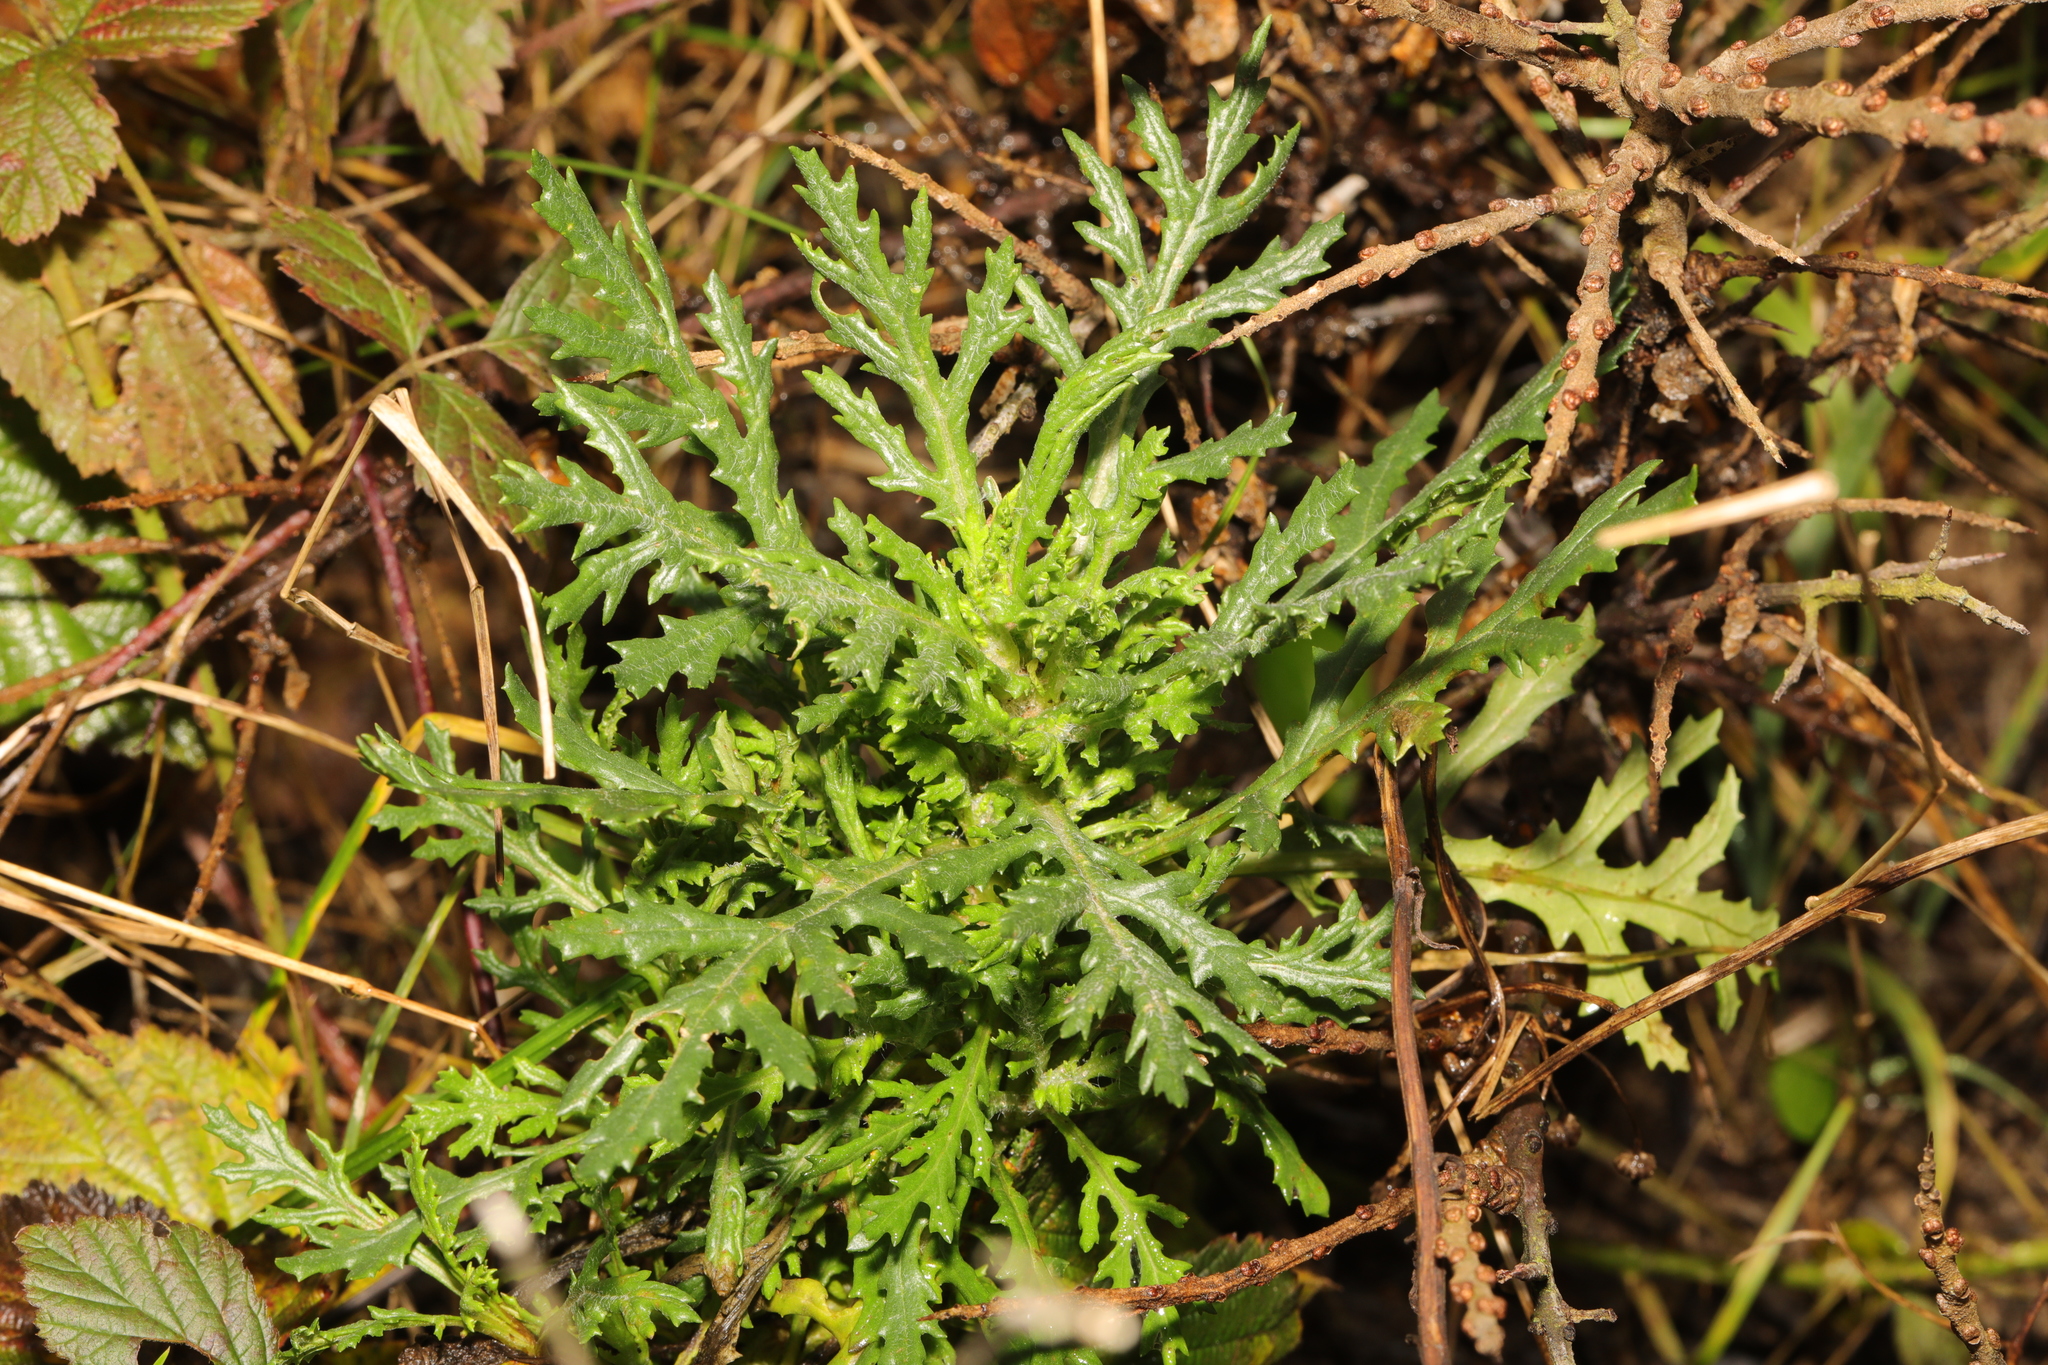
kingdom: Plantae
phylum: Tracheophyta
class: Magnoliopsida
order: Asterales
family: Asteraceae
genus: Senecio
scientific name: Senecio squalidus
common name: Oxford ragwort
